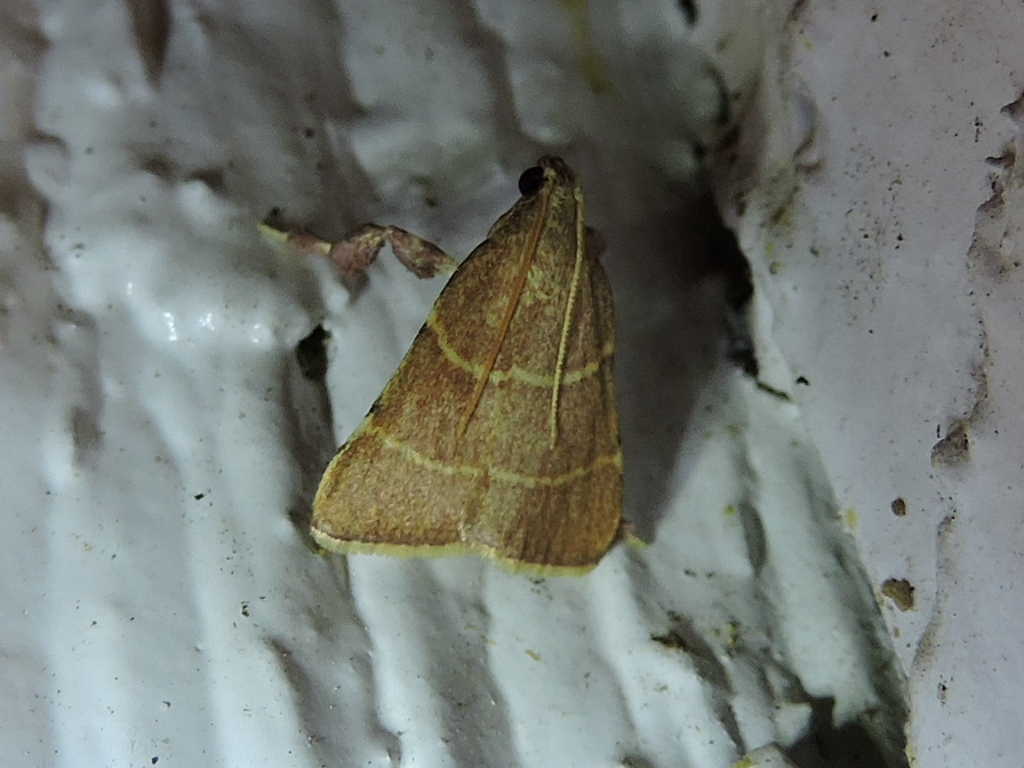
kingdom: Animalia
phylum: Arthropoda
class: Insecta
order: Lepidoptera
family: Pyralidae
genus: Parachma
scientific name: Parachma ochracealis
